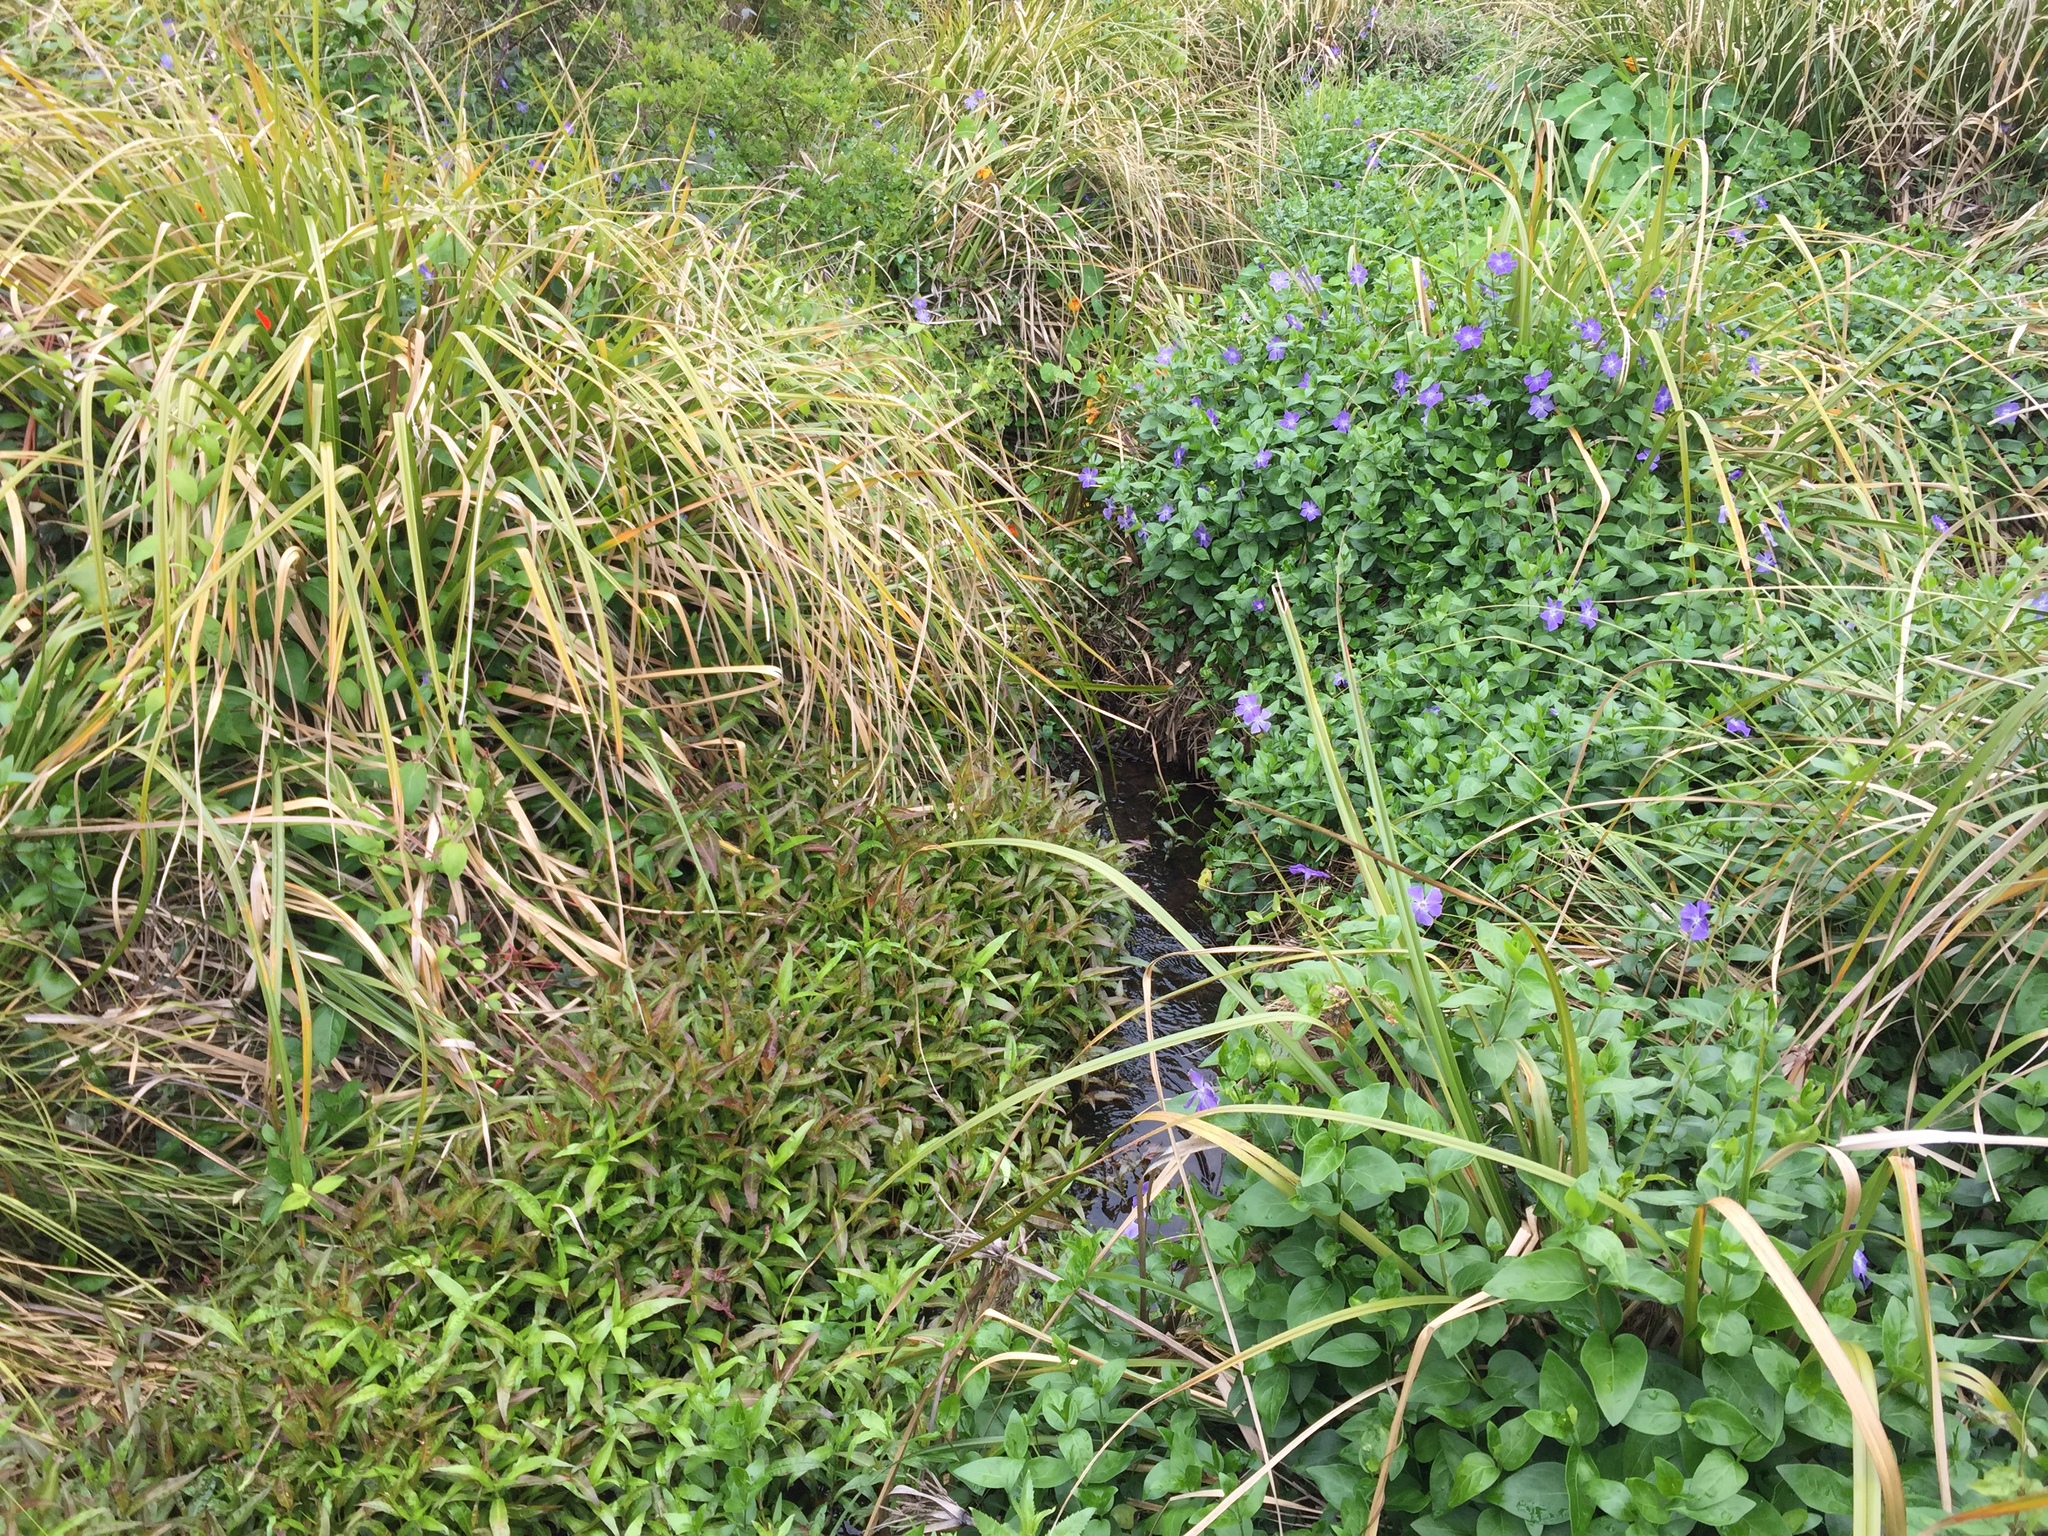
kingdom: Plantae
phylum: Tracheophyta
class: Magnoliopsida
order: Gentianales
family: Apocynaceae
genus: Vinca
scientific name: Vinca major
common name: Greater periwinkle
